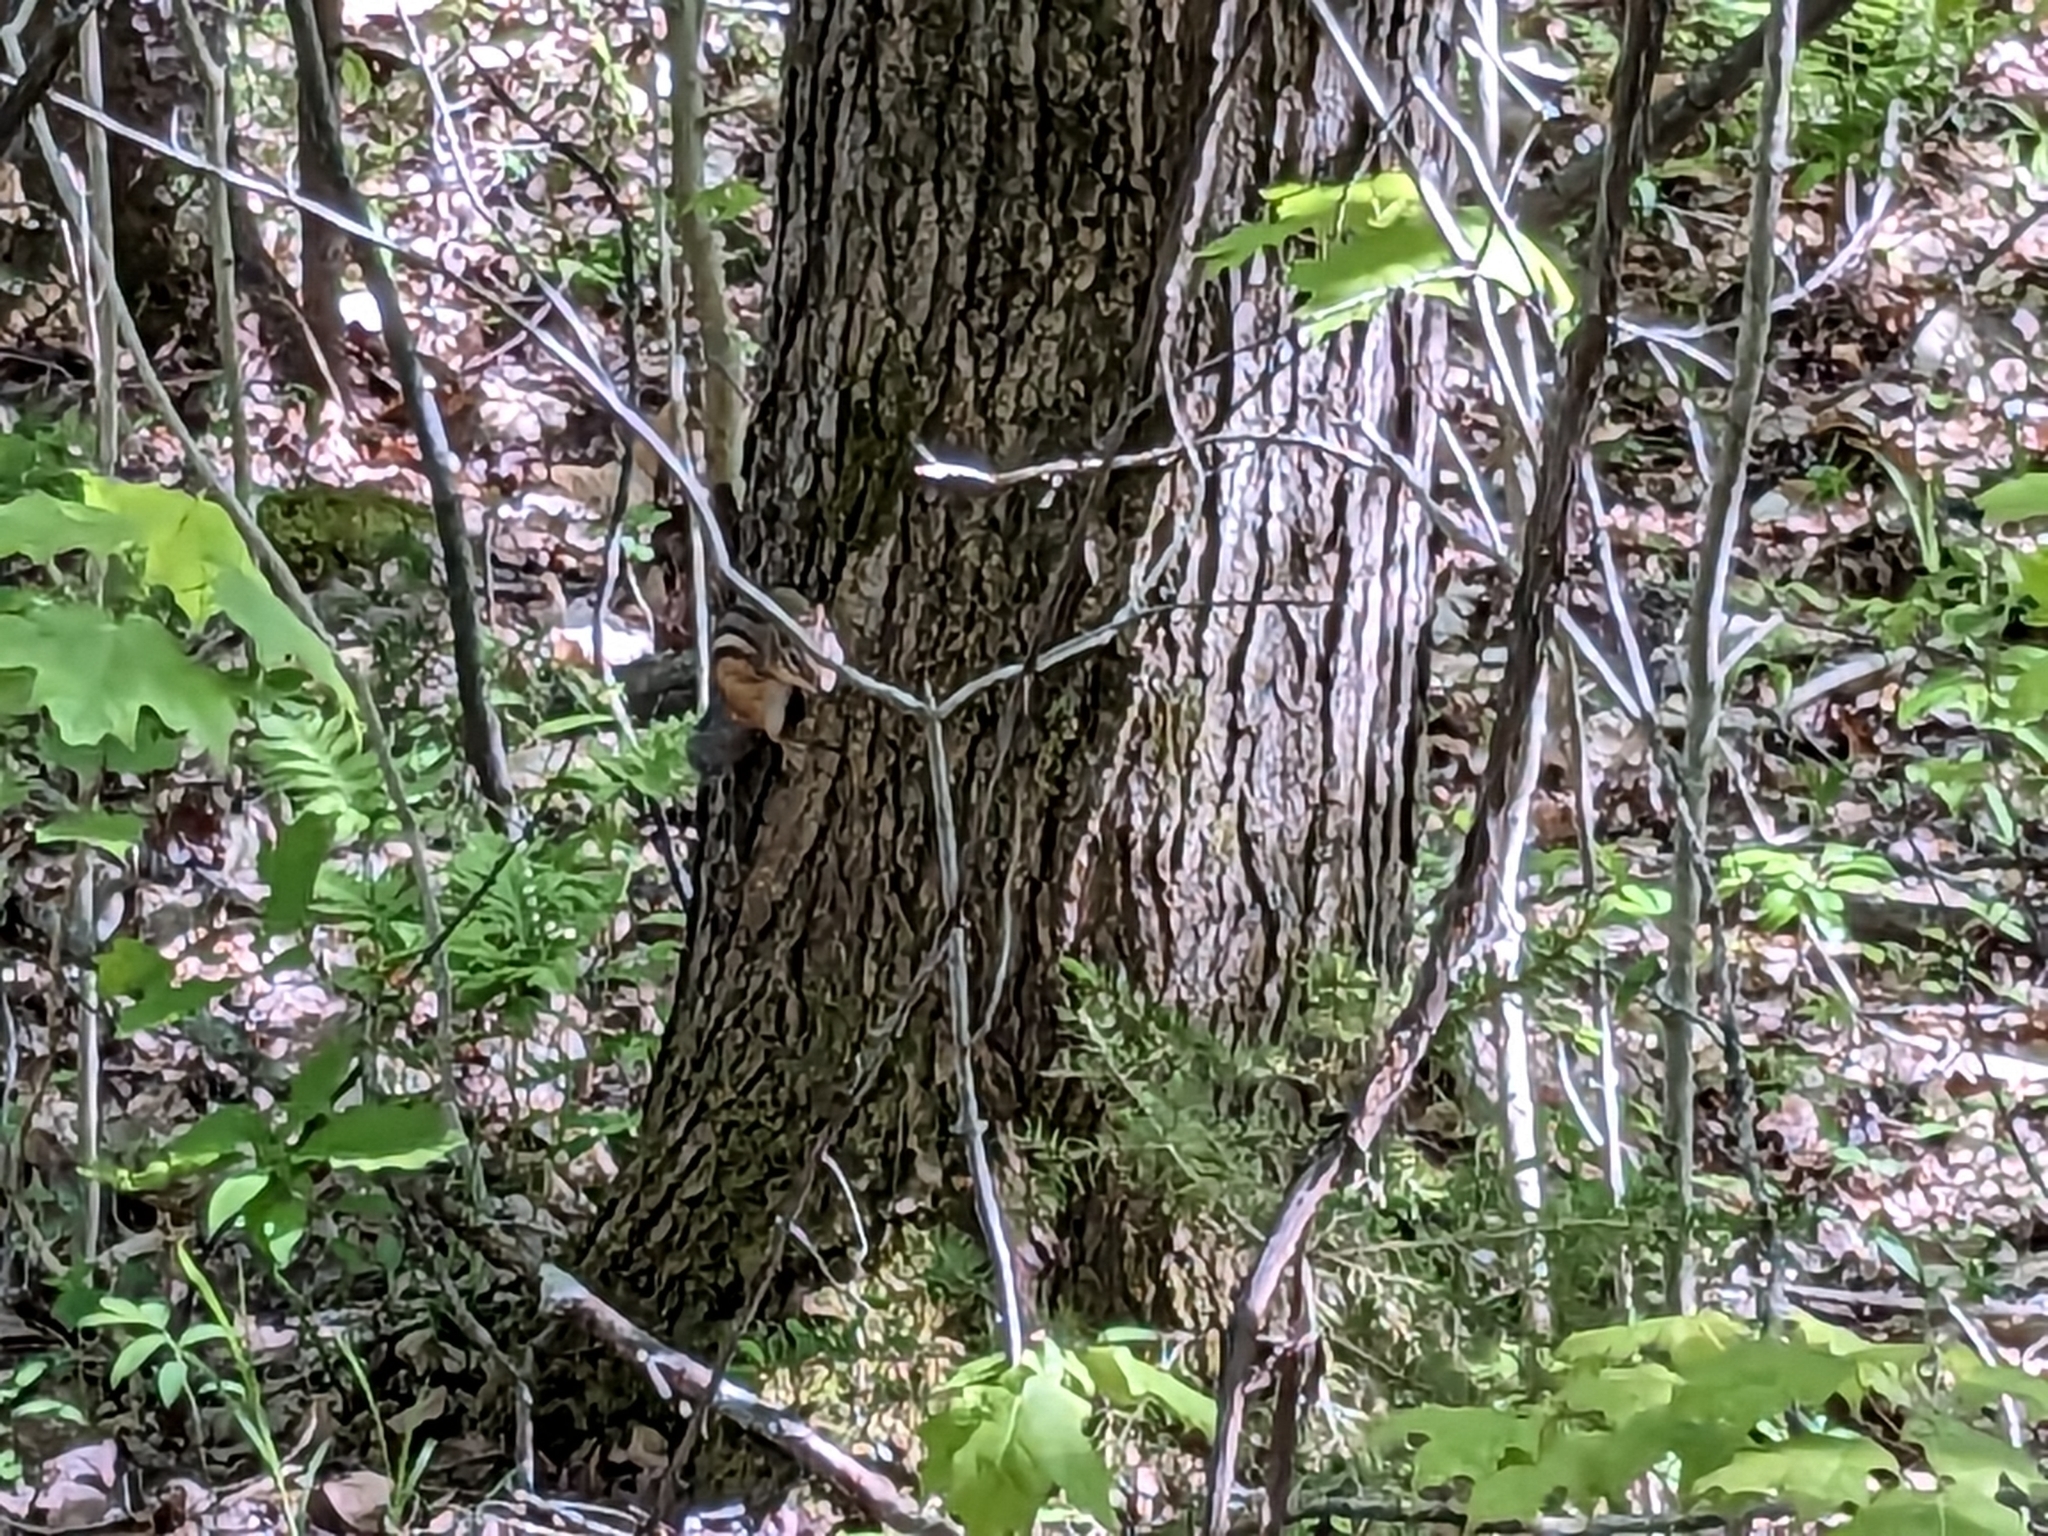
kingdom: Animalia
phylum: Chordata
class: Mammalia
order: Rodentia
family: Sciuridae
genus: Tamias
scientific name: Tamias striatus
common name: Eastern chipmunk
